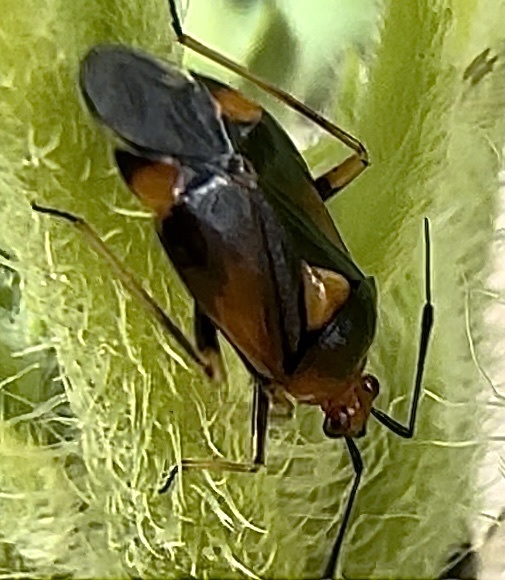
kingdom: Animalia
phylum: Arthropoda
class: Insecta
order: Hemiptera
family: Miridae
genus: Deraeocoris
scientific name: Deraeocoris ruber
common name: Plant bug
